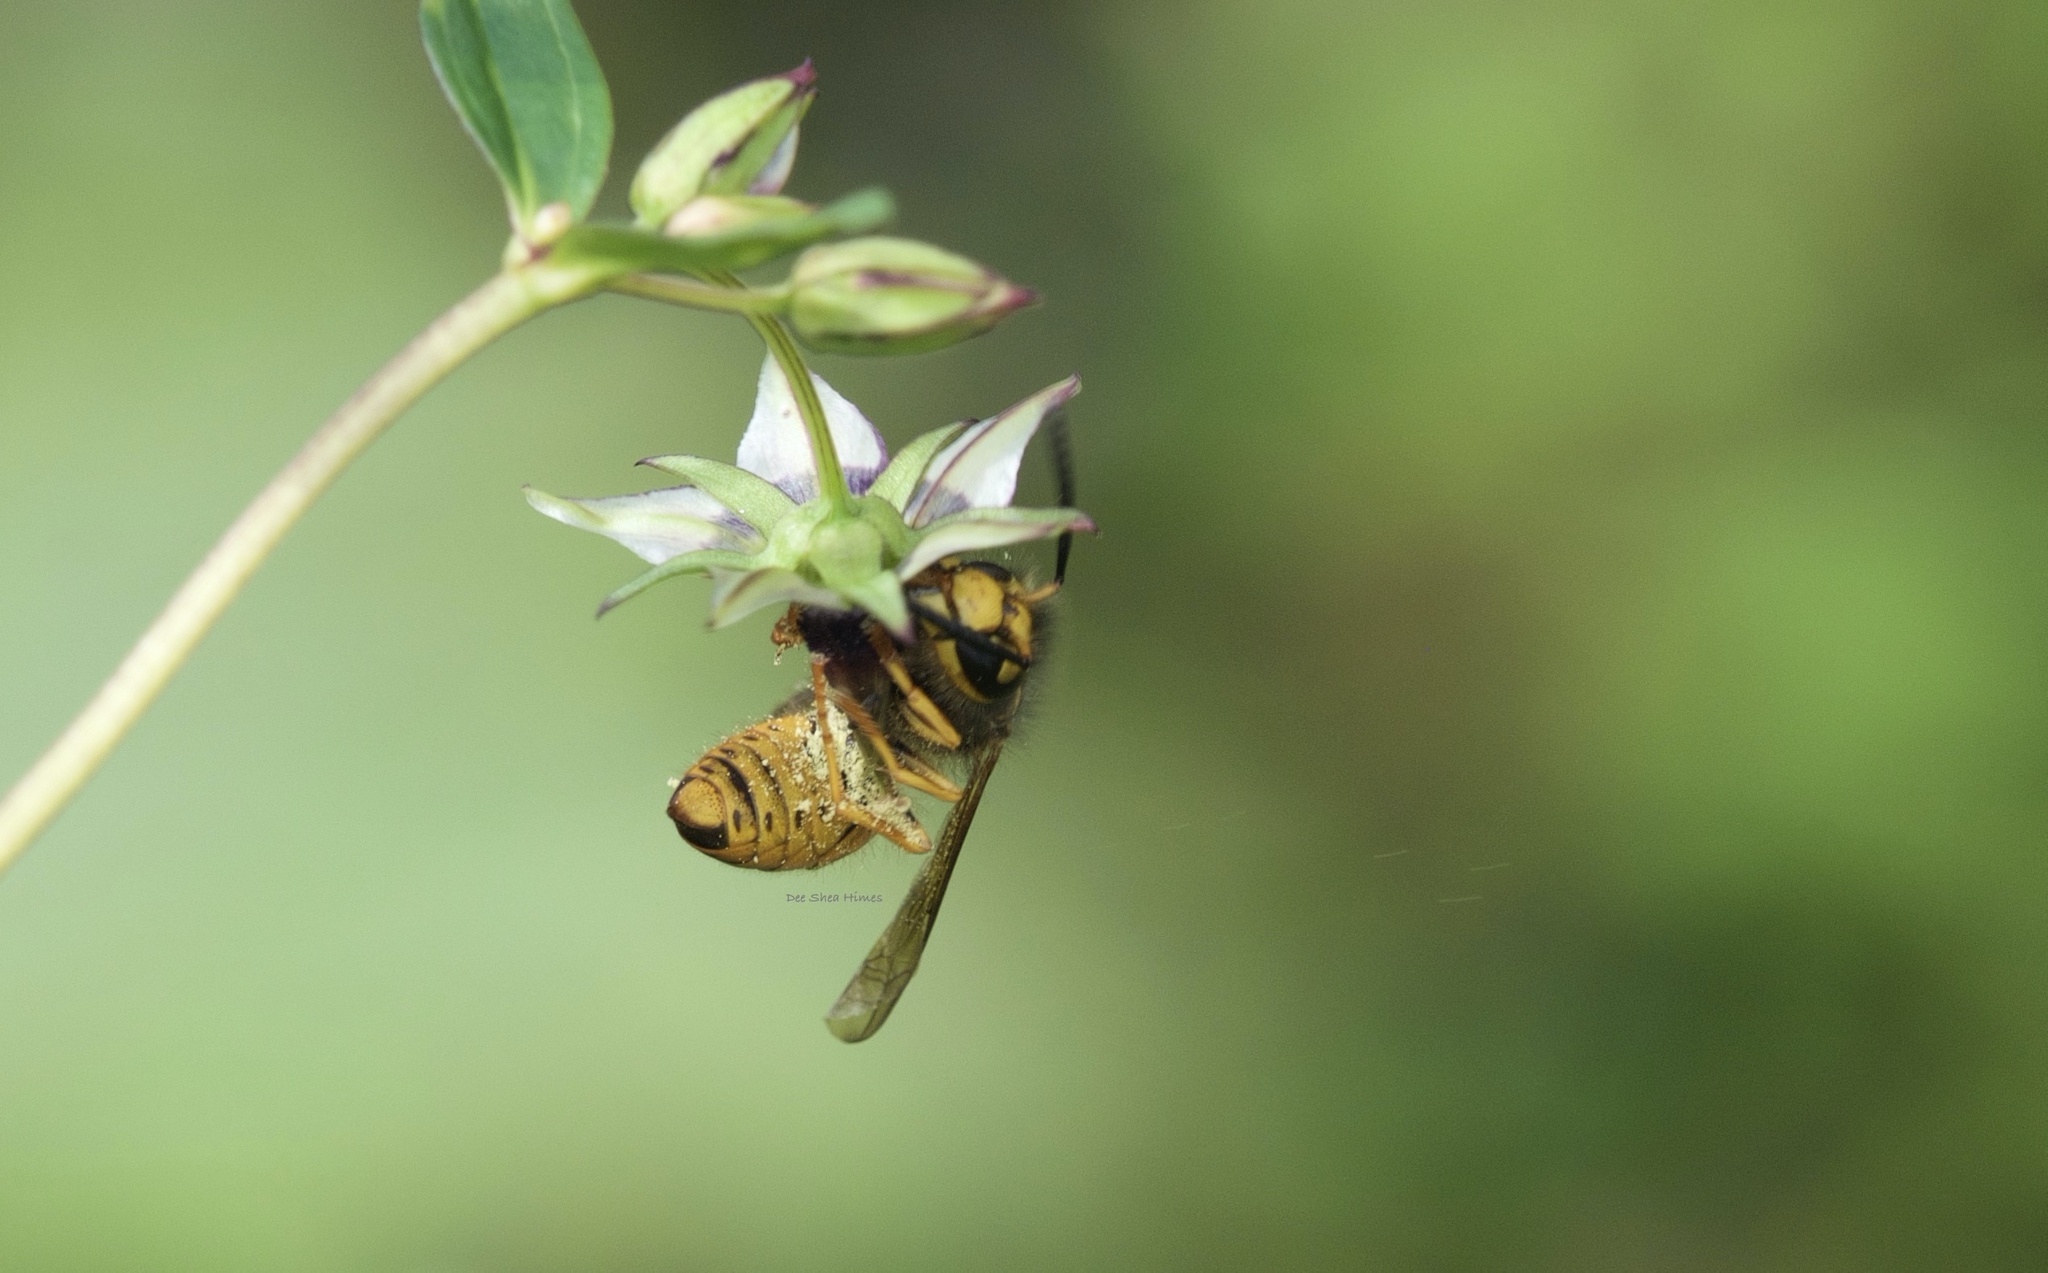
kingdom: Animalia
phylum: Arthropoda
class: Insecta
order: Hymenoptera
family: Vespidae
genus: Vespula
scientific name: Vespula structor
